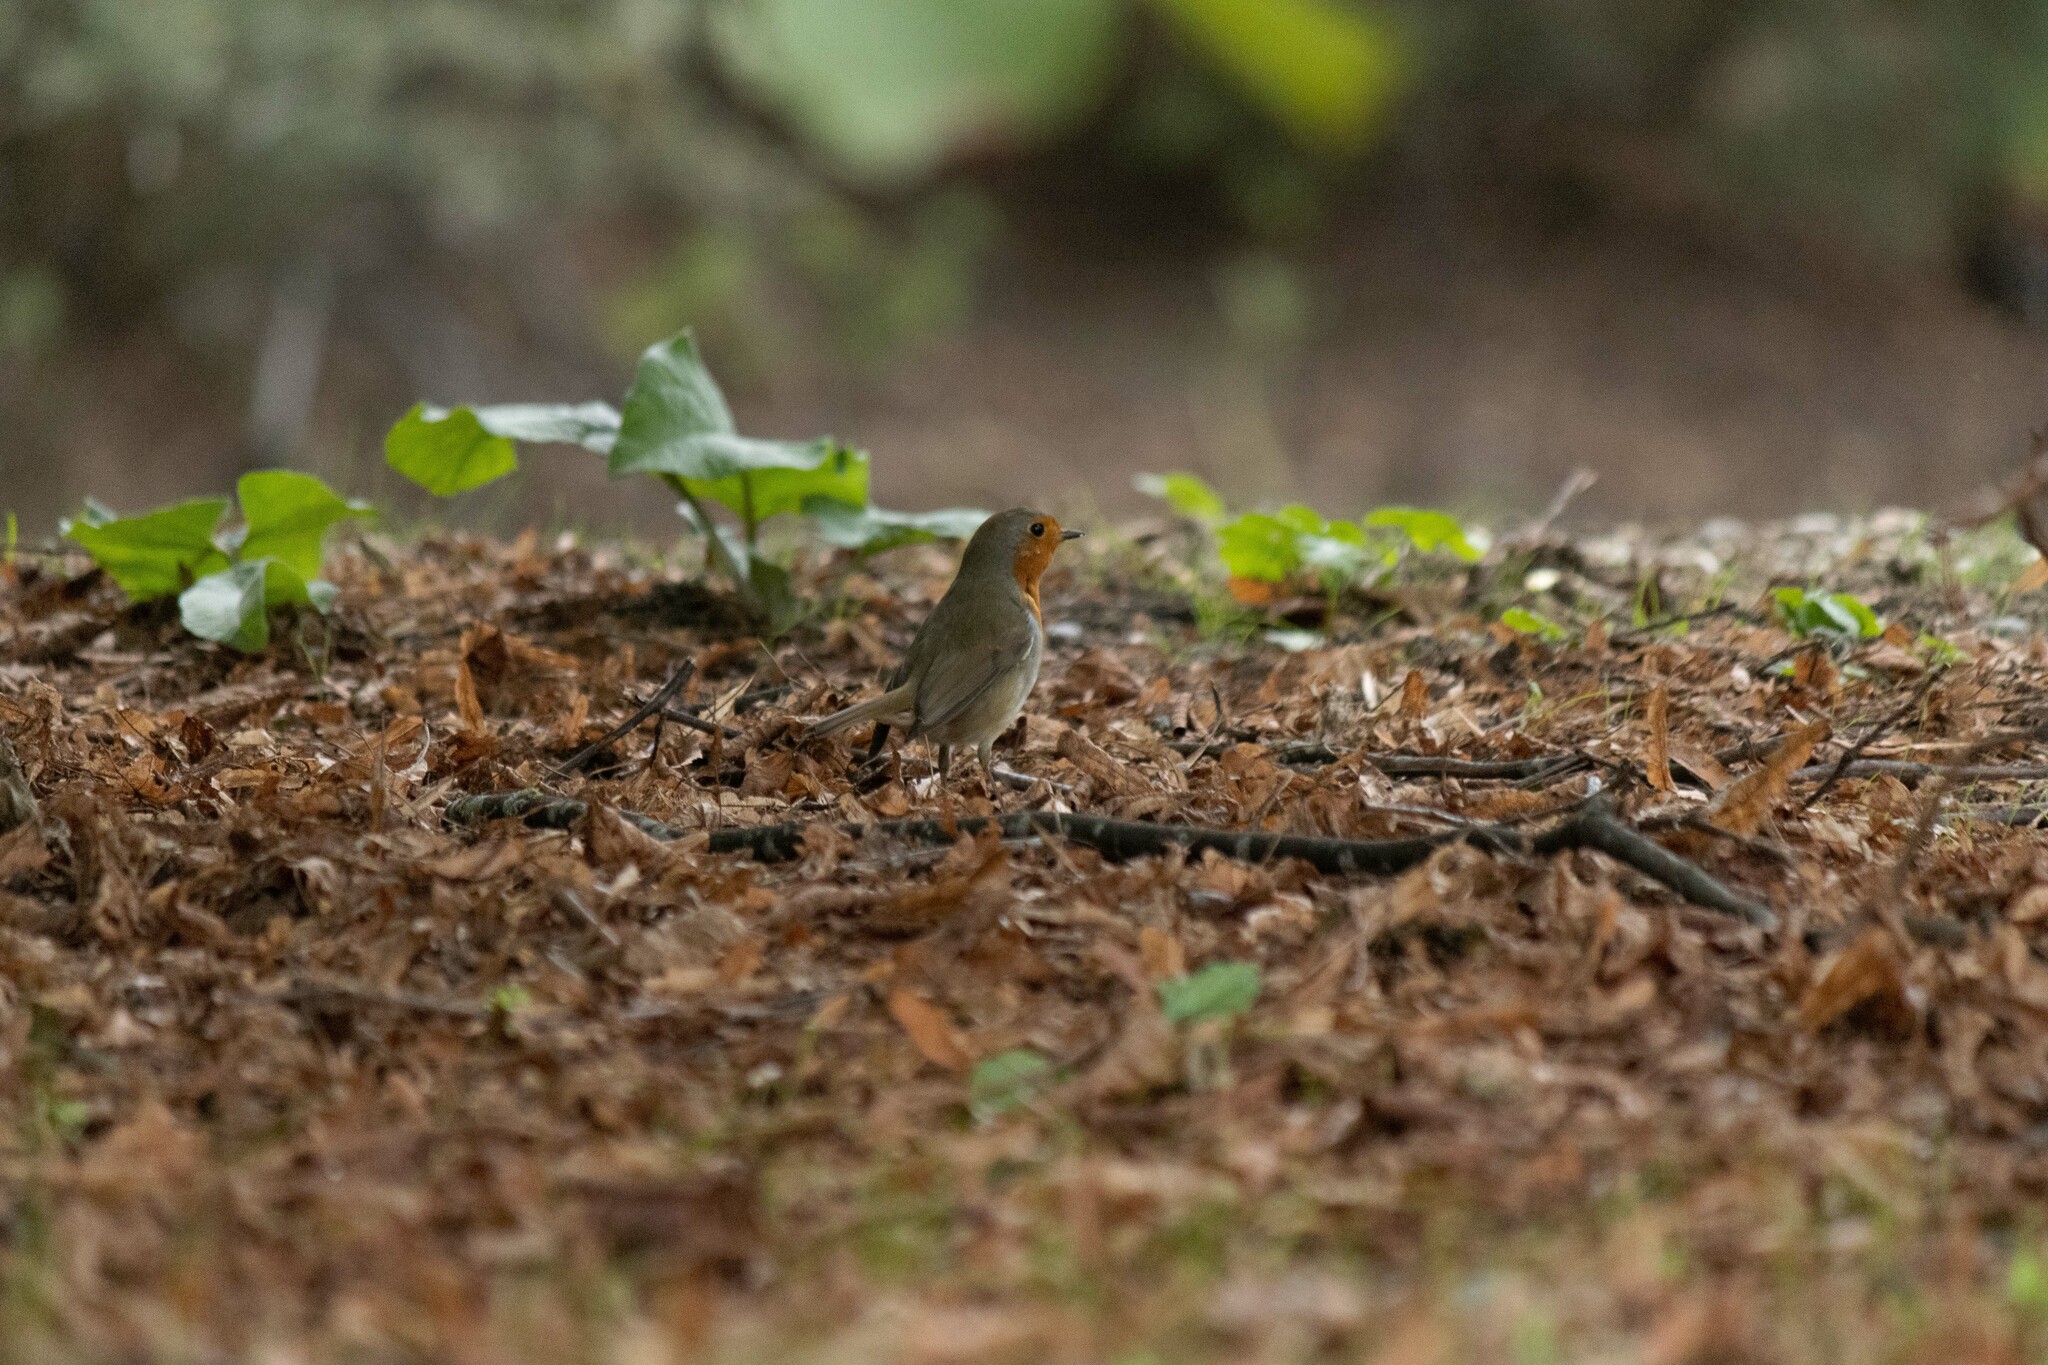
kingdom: Animalia
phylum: Chordata
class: Aves
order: Passeriformes
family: Muscicapidae
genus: Erithacus
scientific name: Erithacus rubecula
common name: European robin
